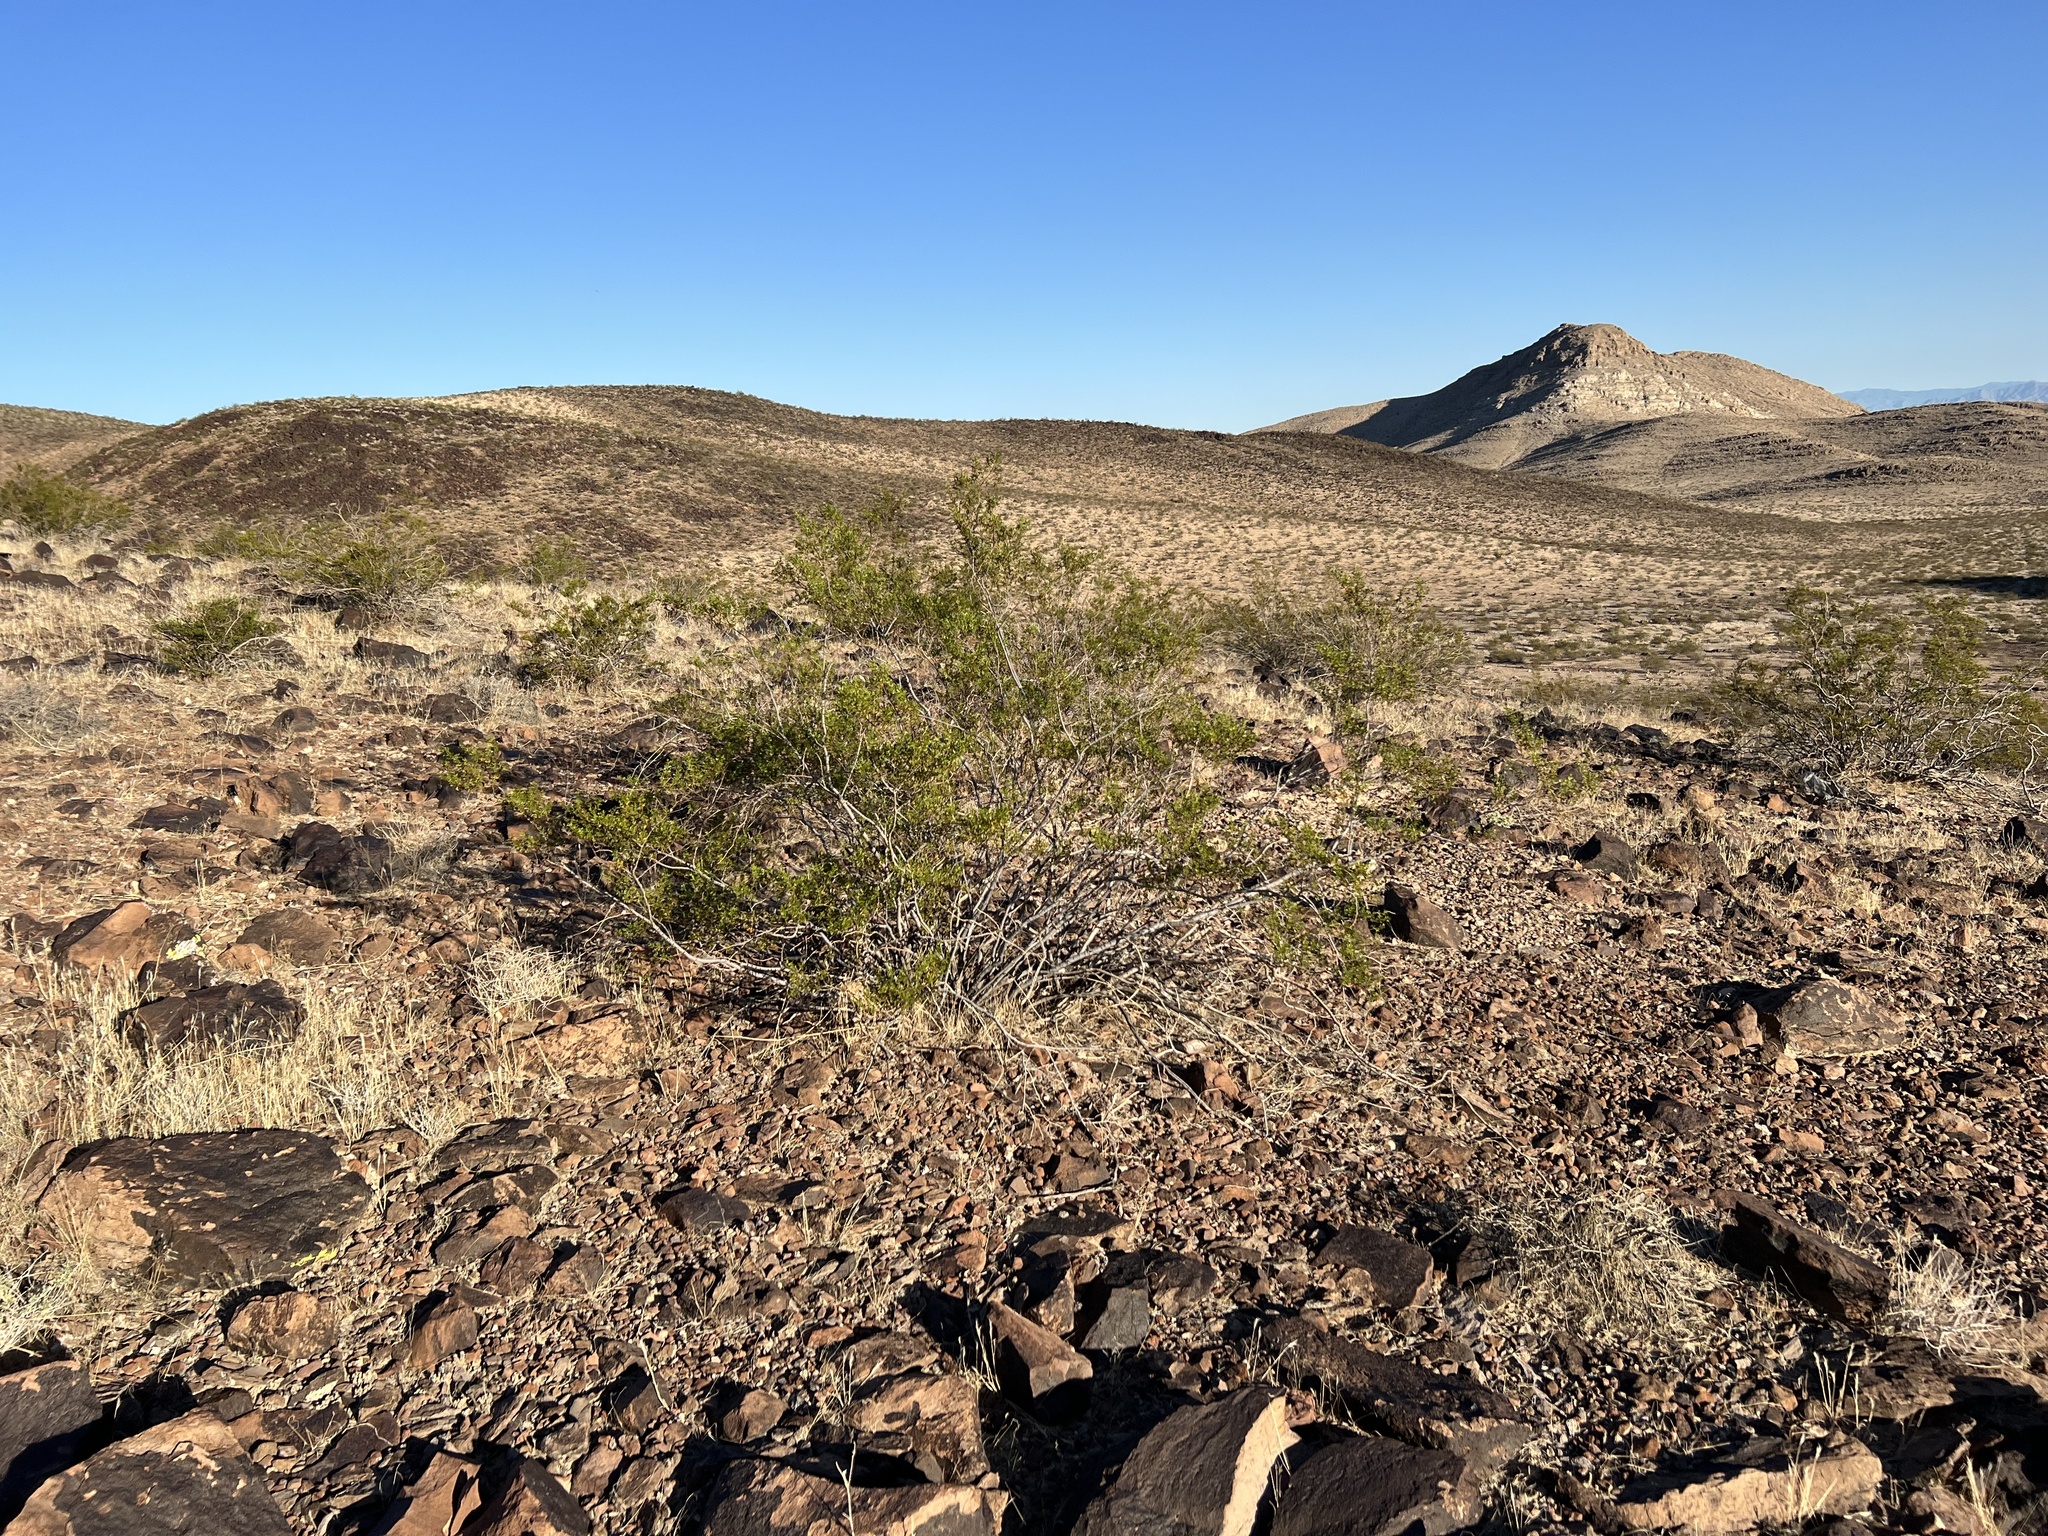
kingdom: Plantae
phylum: Tracheophyta
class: Magnoliopsida
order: Zygophyllales
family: Zygophyllaceae
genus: Larrea
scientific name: Larrea tridentata
